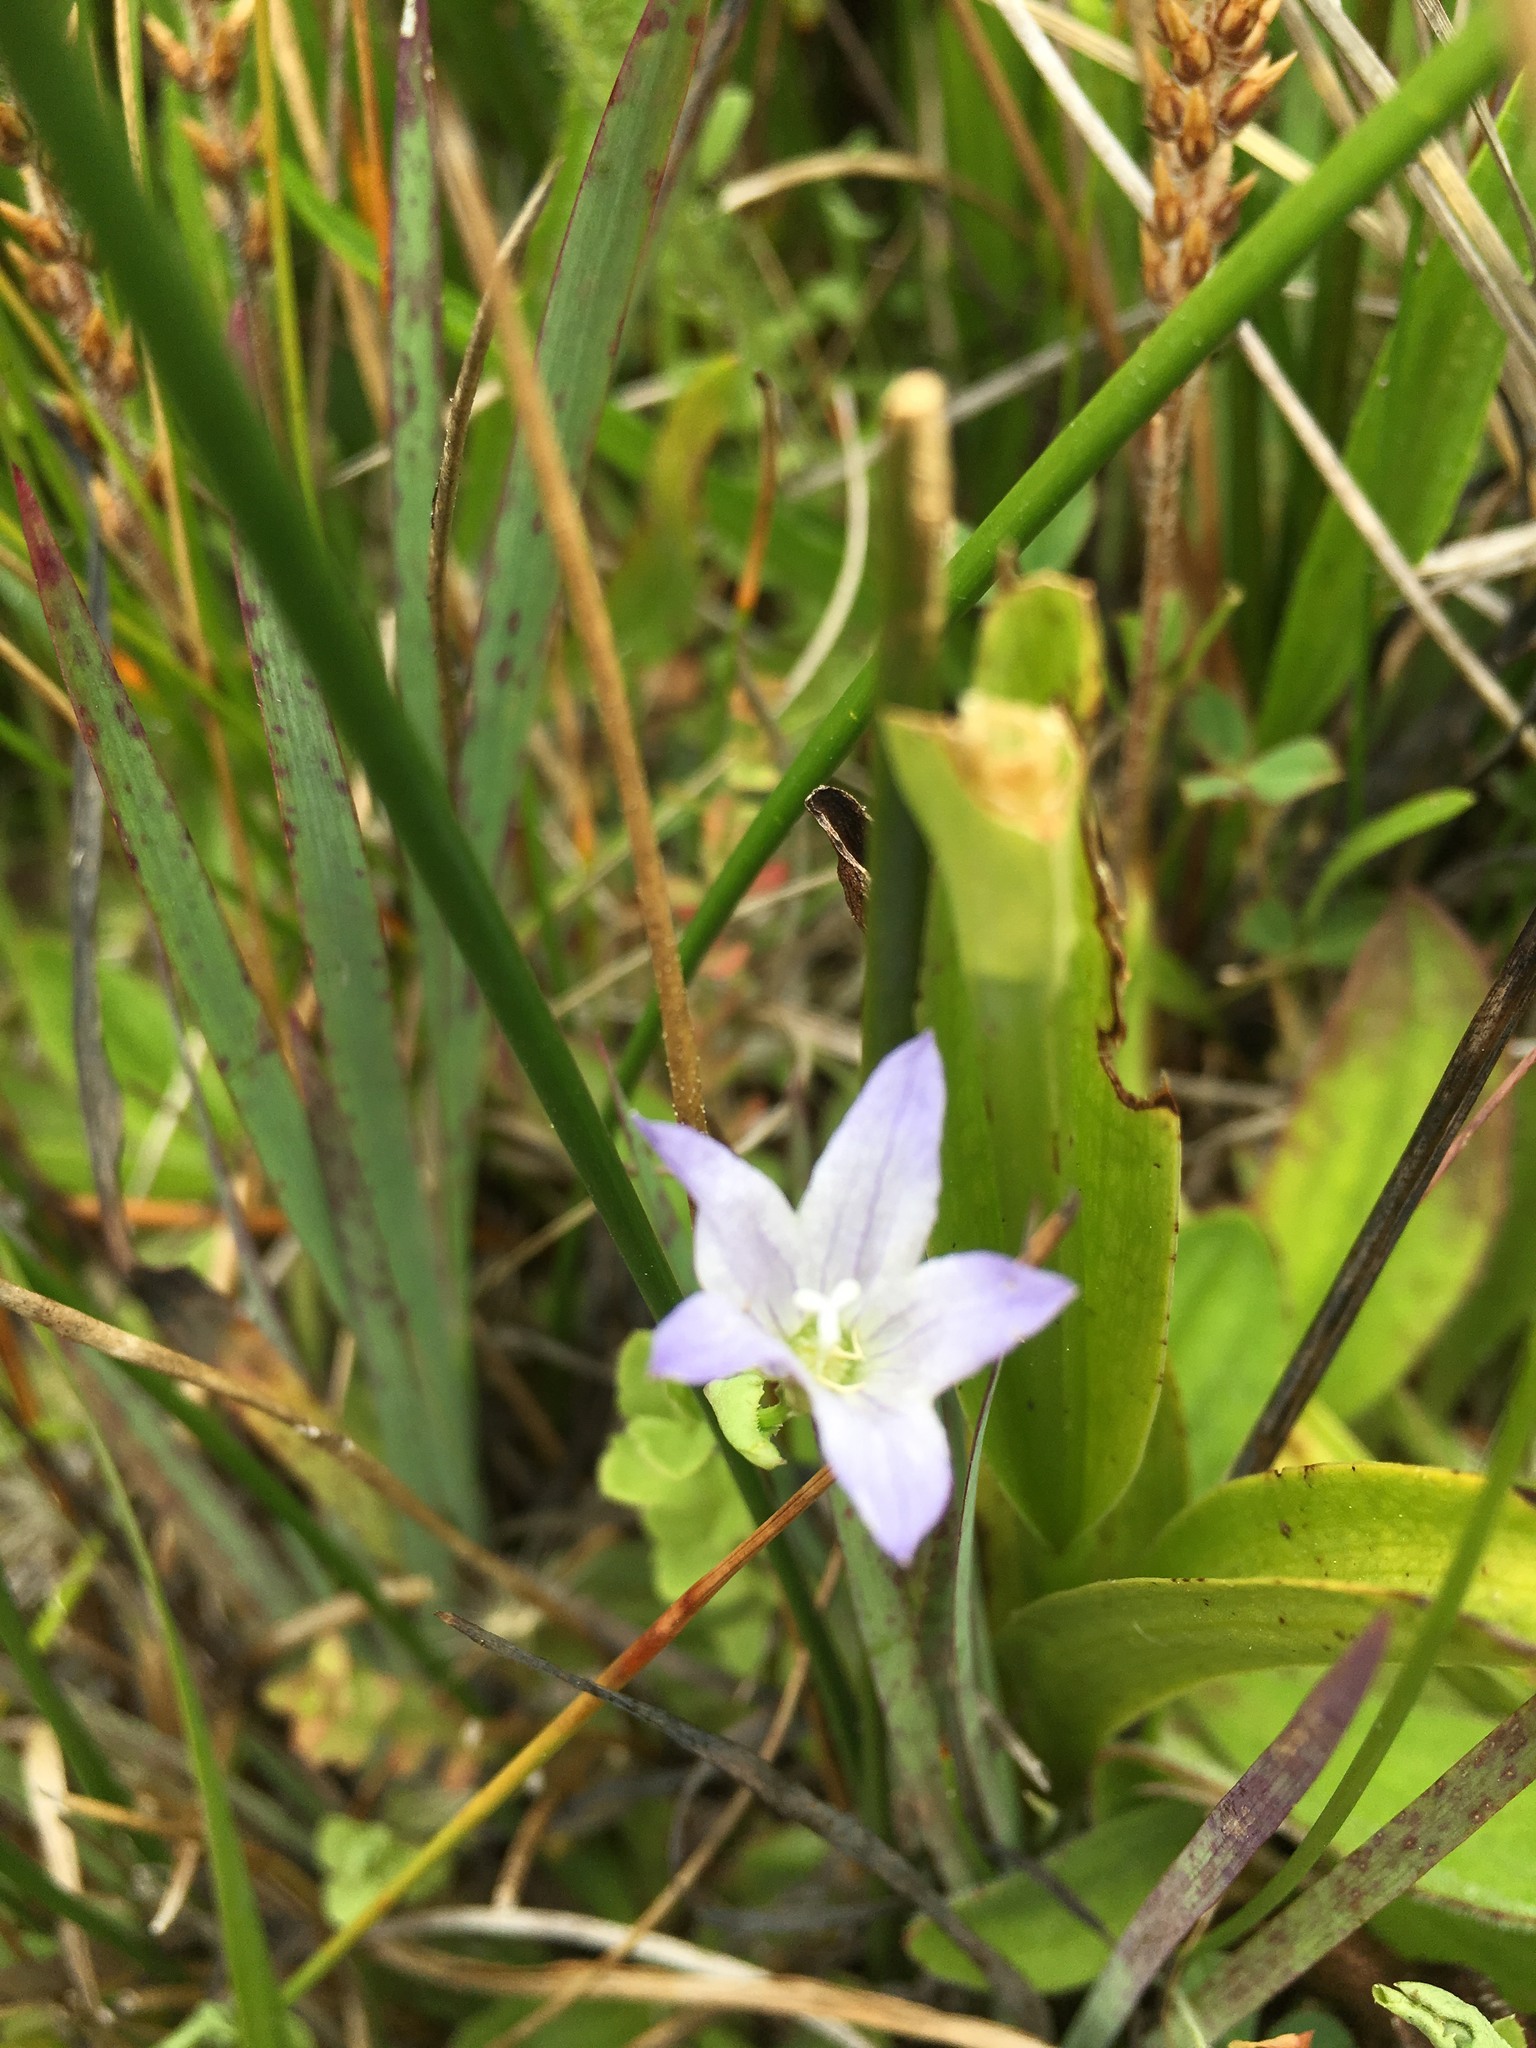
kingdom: Plantae
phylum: Tracheophyta
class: Magnoliopsida
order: Asterales
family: Campanulaceae
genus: Eastwoodiella
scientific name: Eastwoodiella californica
